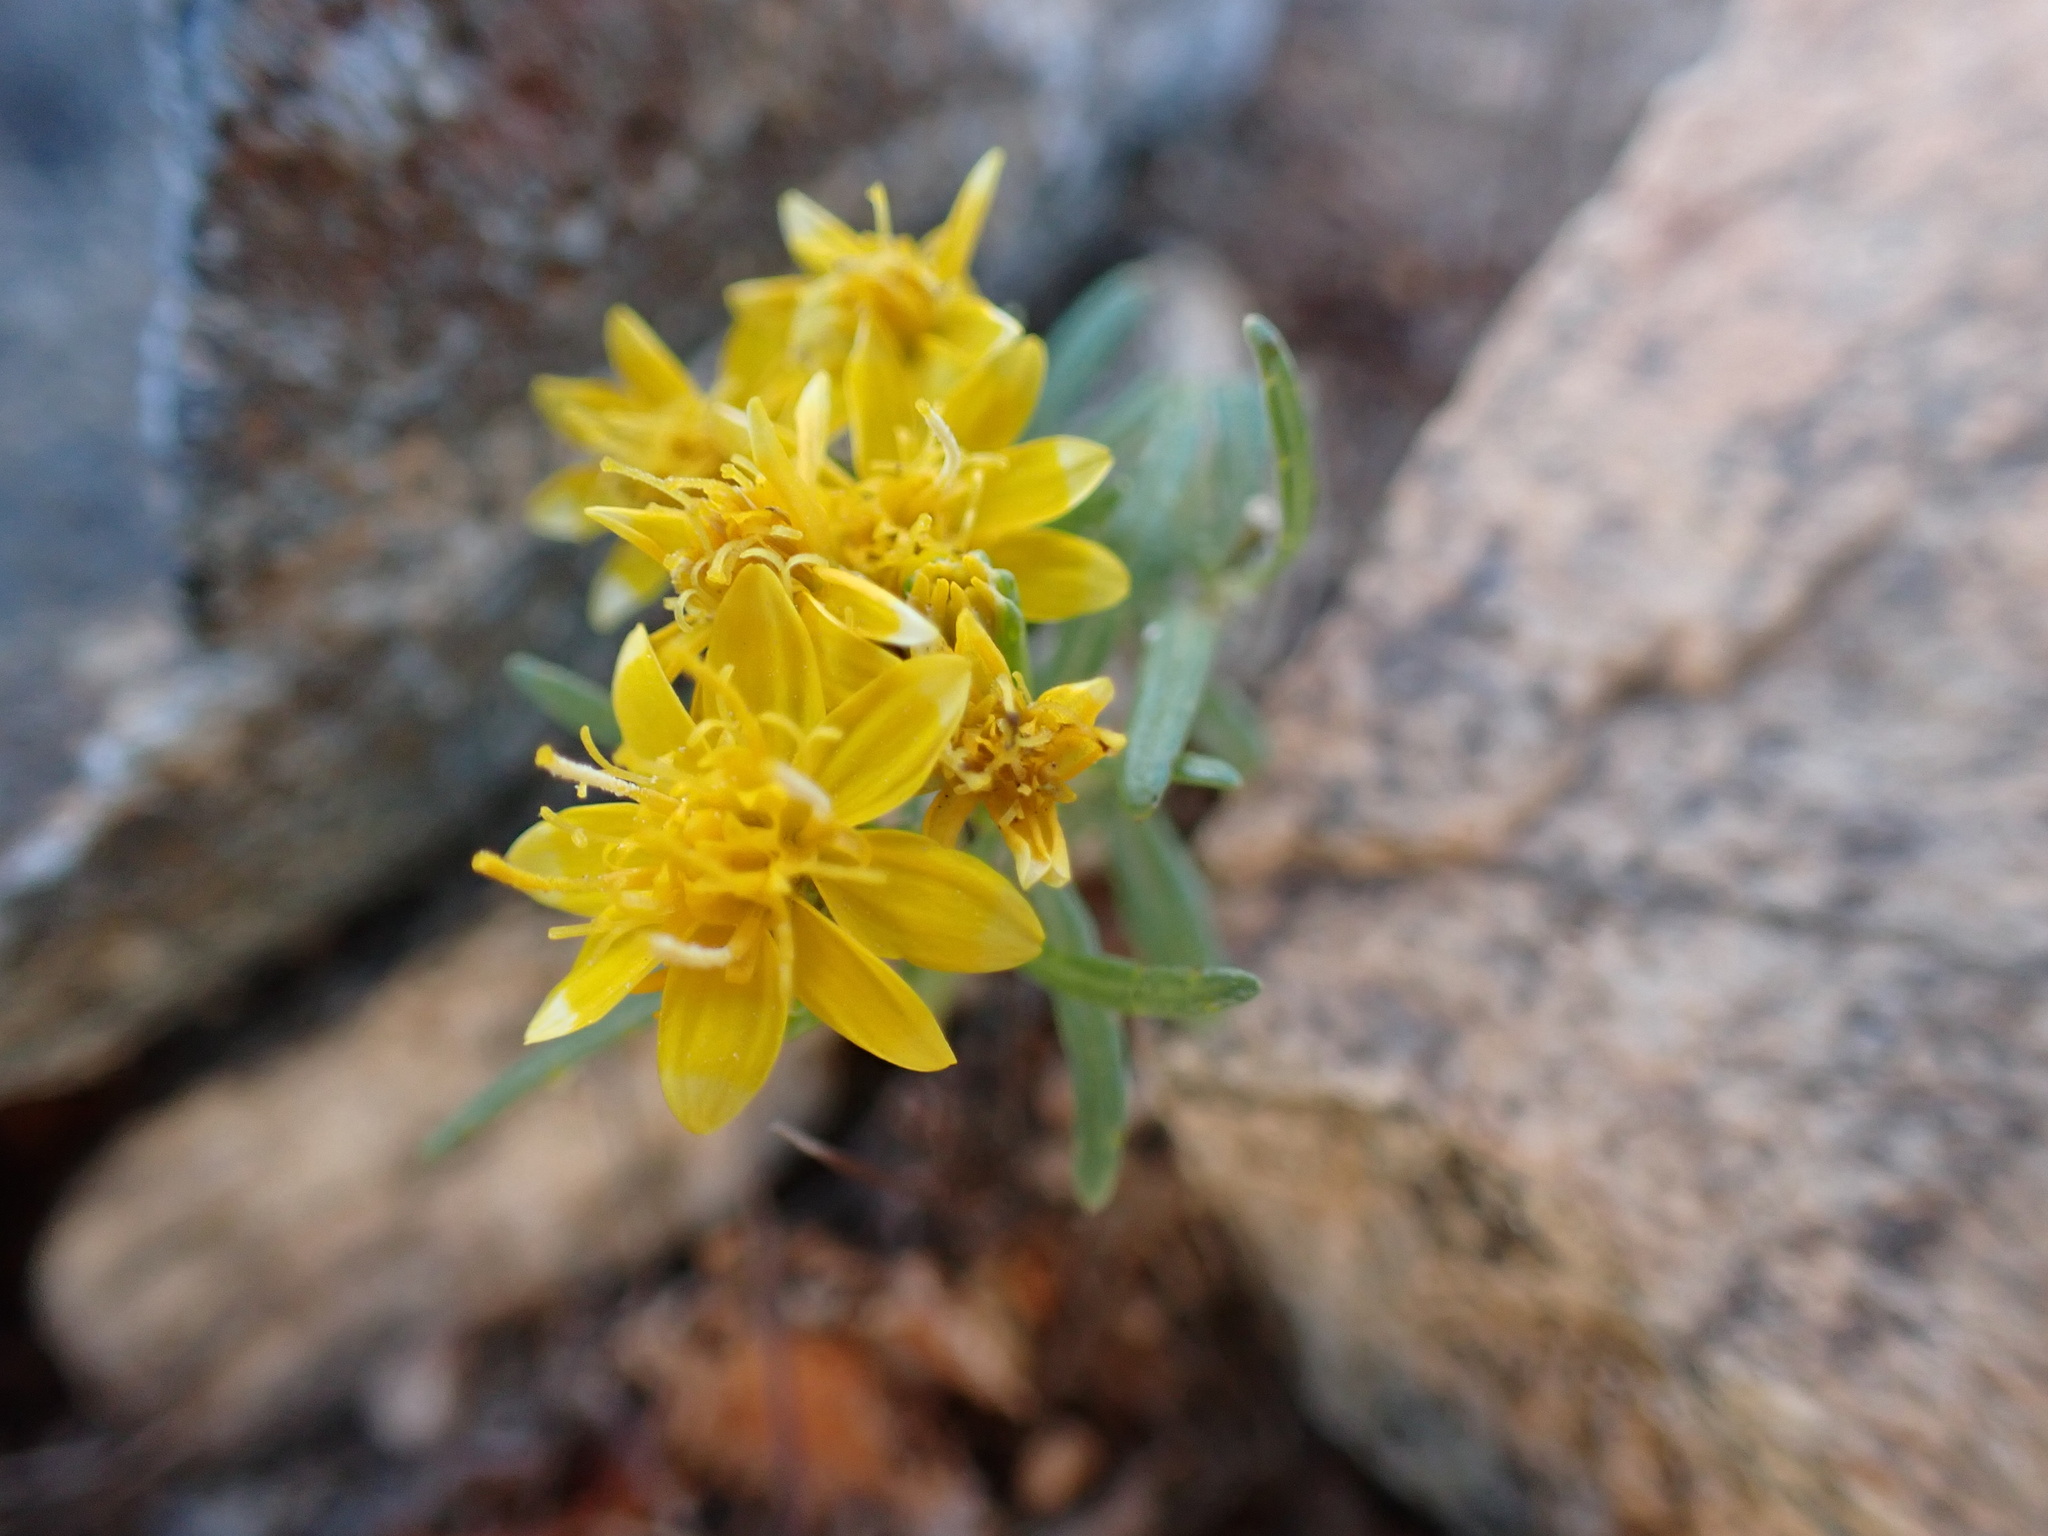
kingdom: Plantae
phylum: Tracheophyta
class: Magnoliopsida
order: Asterales
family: Asteraceae
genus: Pectis
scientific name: Pectis papposa
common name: Many-bristle chinchweed
